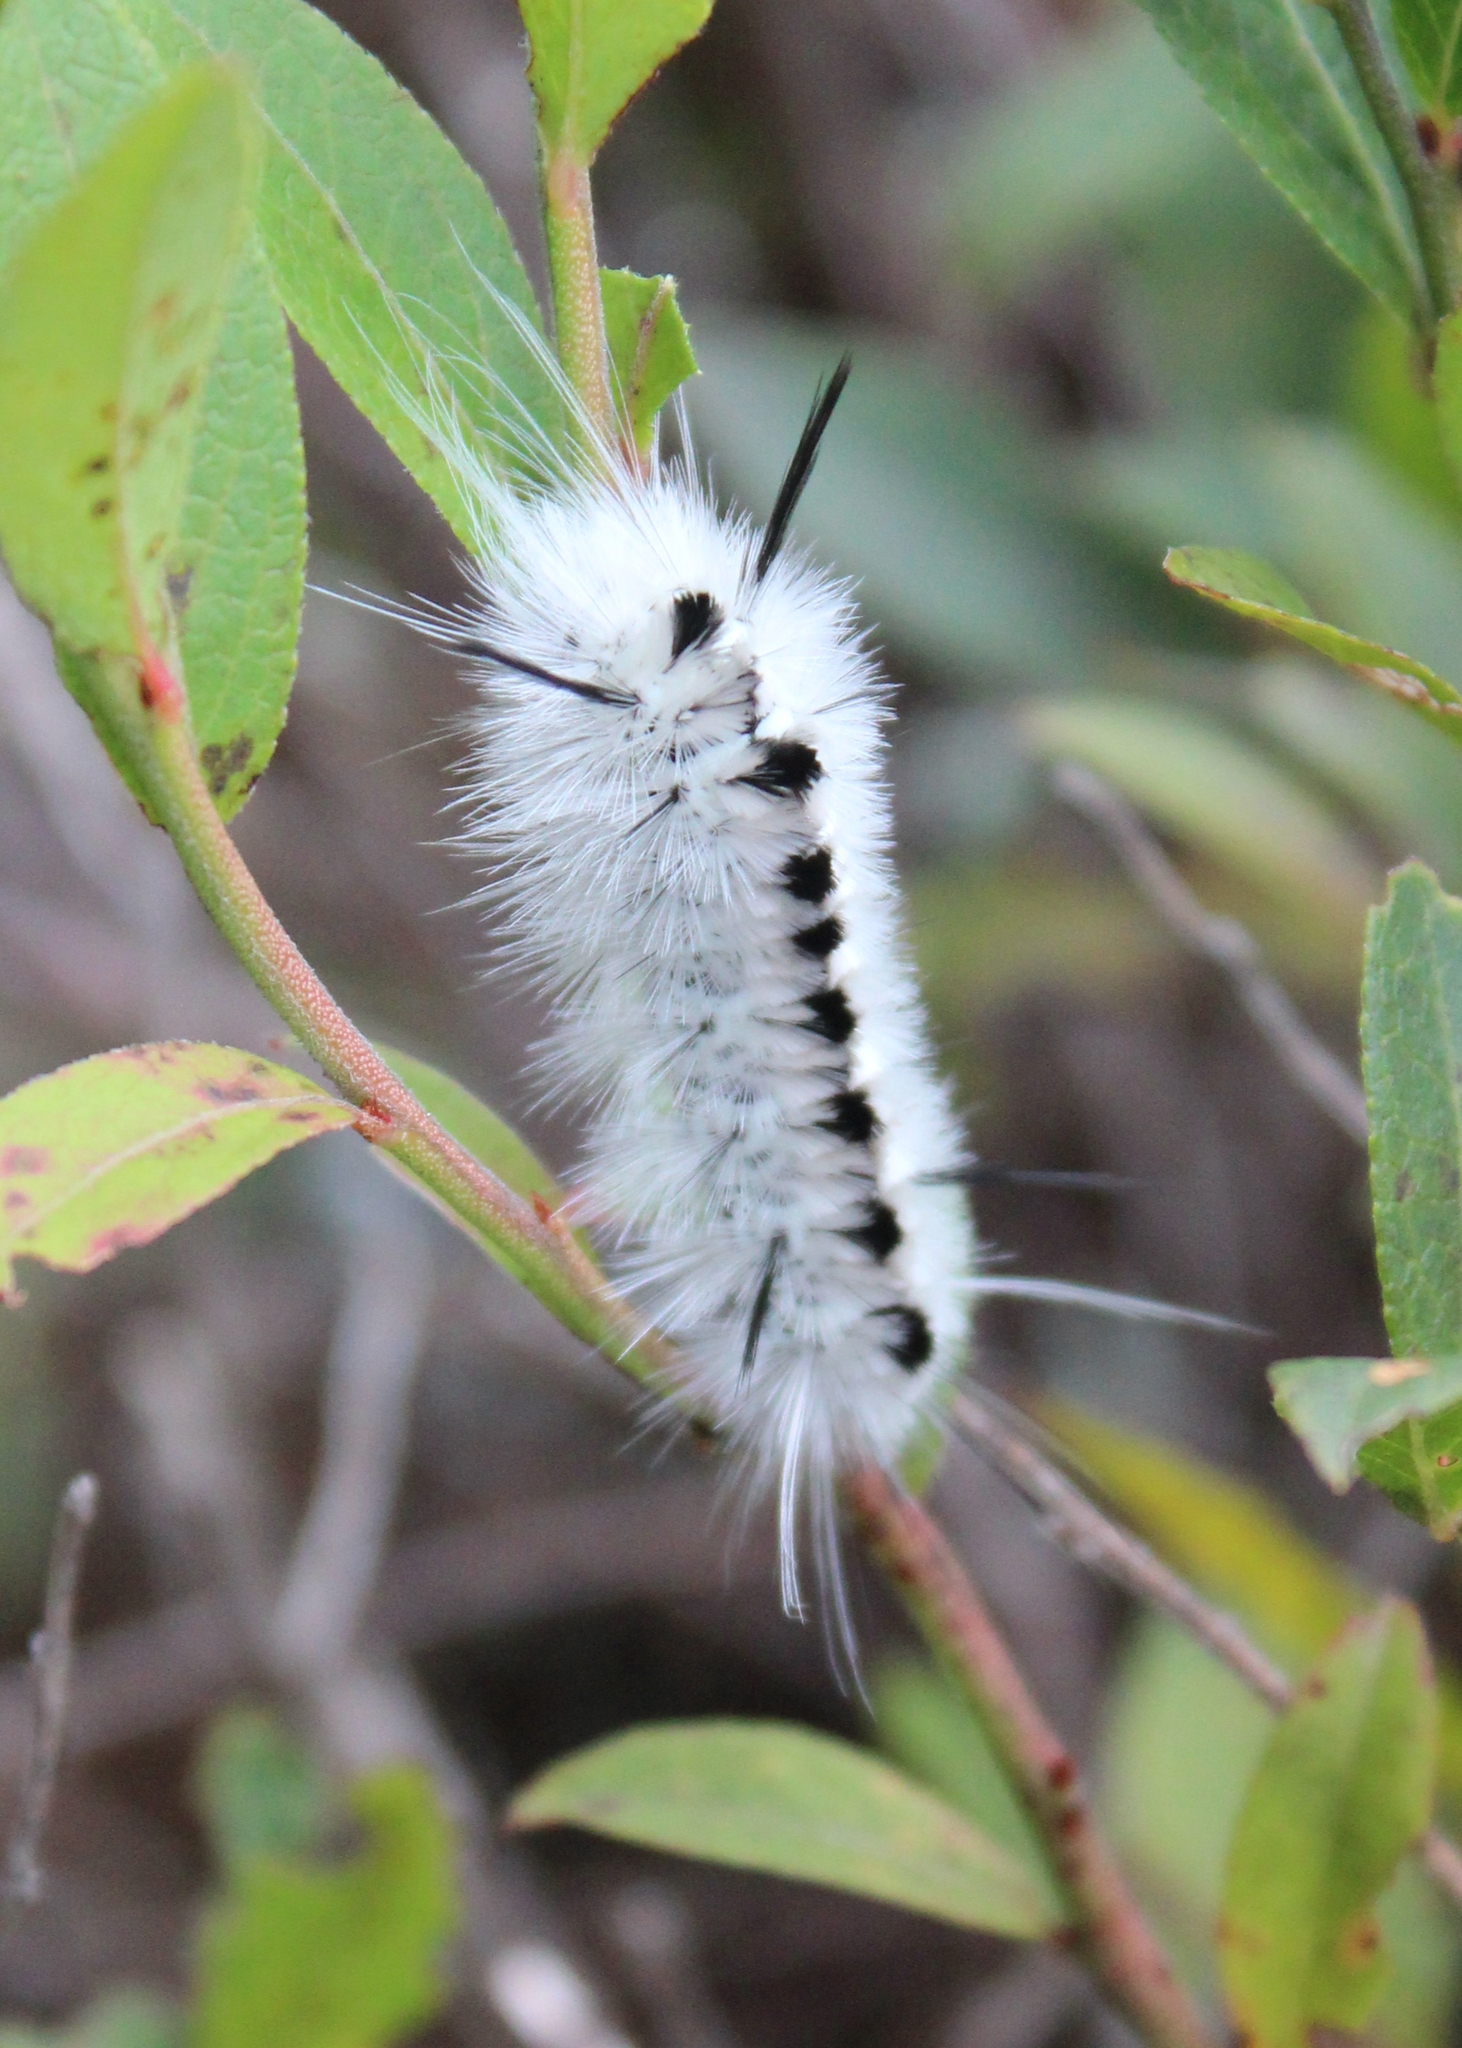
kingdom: Animalia
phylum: Arthropoda
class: Insecta
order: Lepidoptera
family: Erebidae
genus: Lophocampa
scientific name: Lophocampa caryae
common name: Hickory tussock moth
